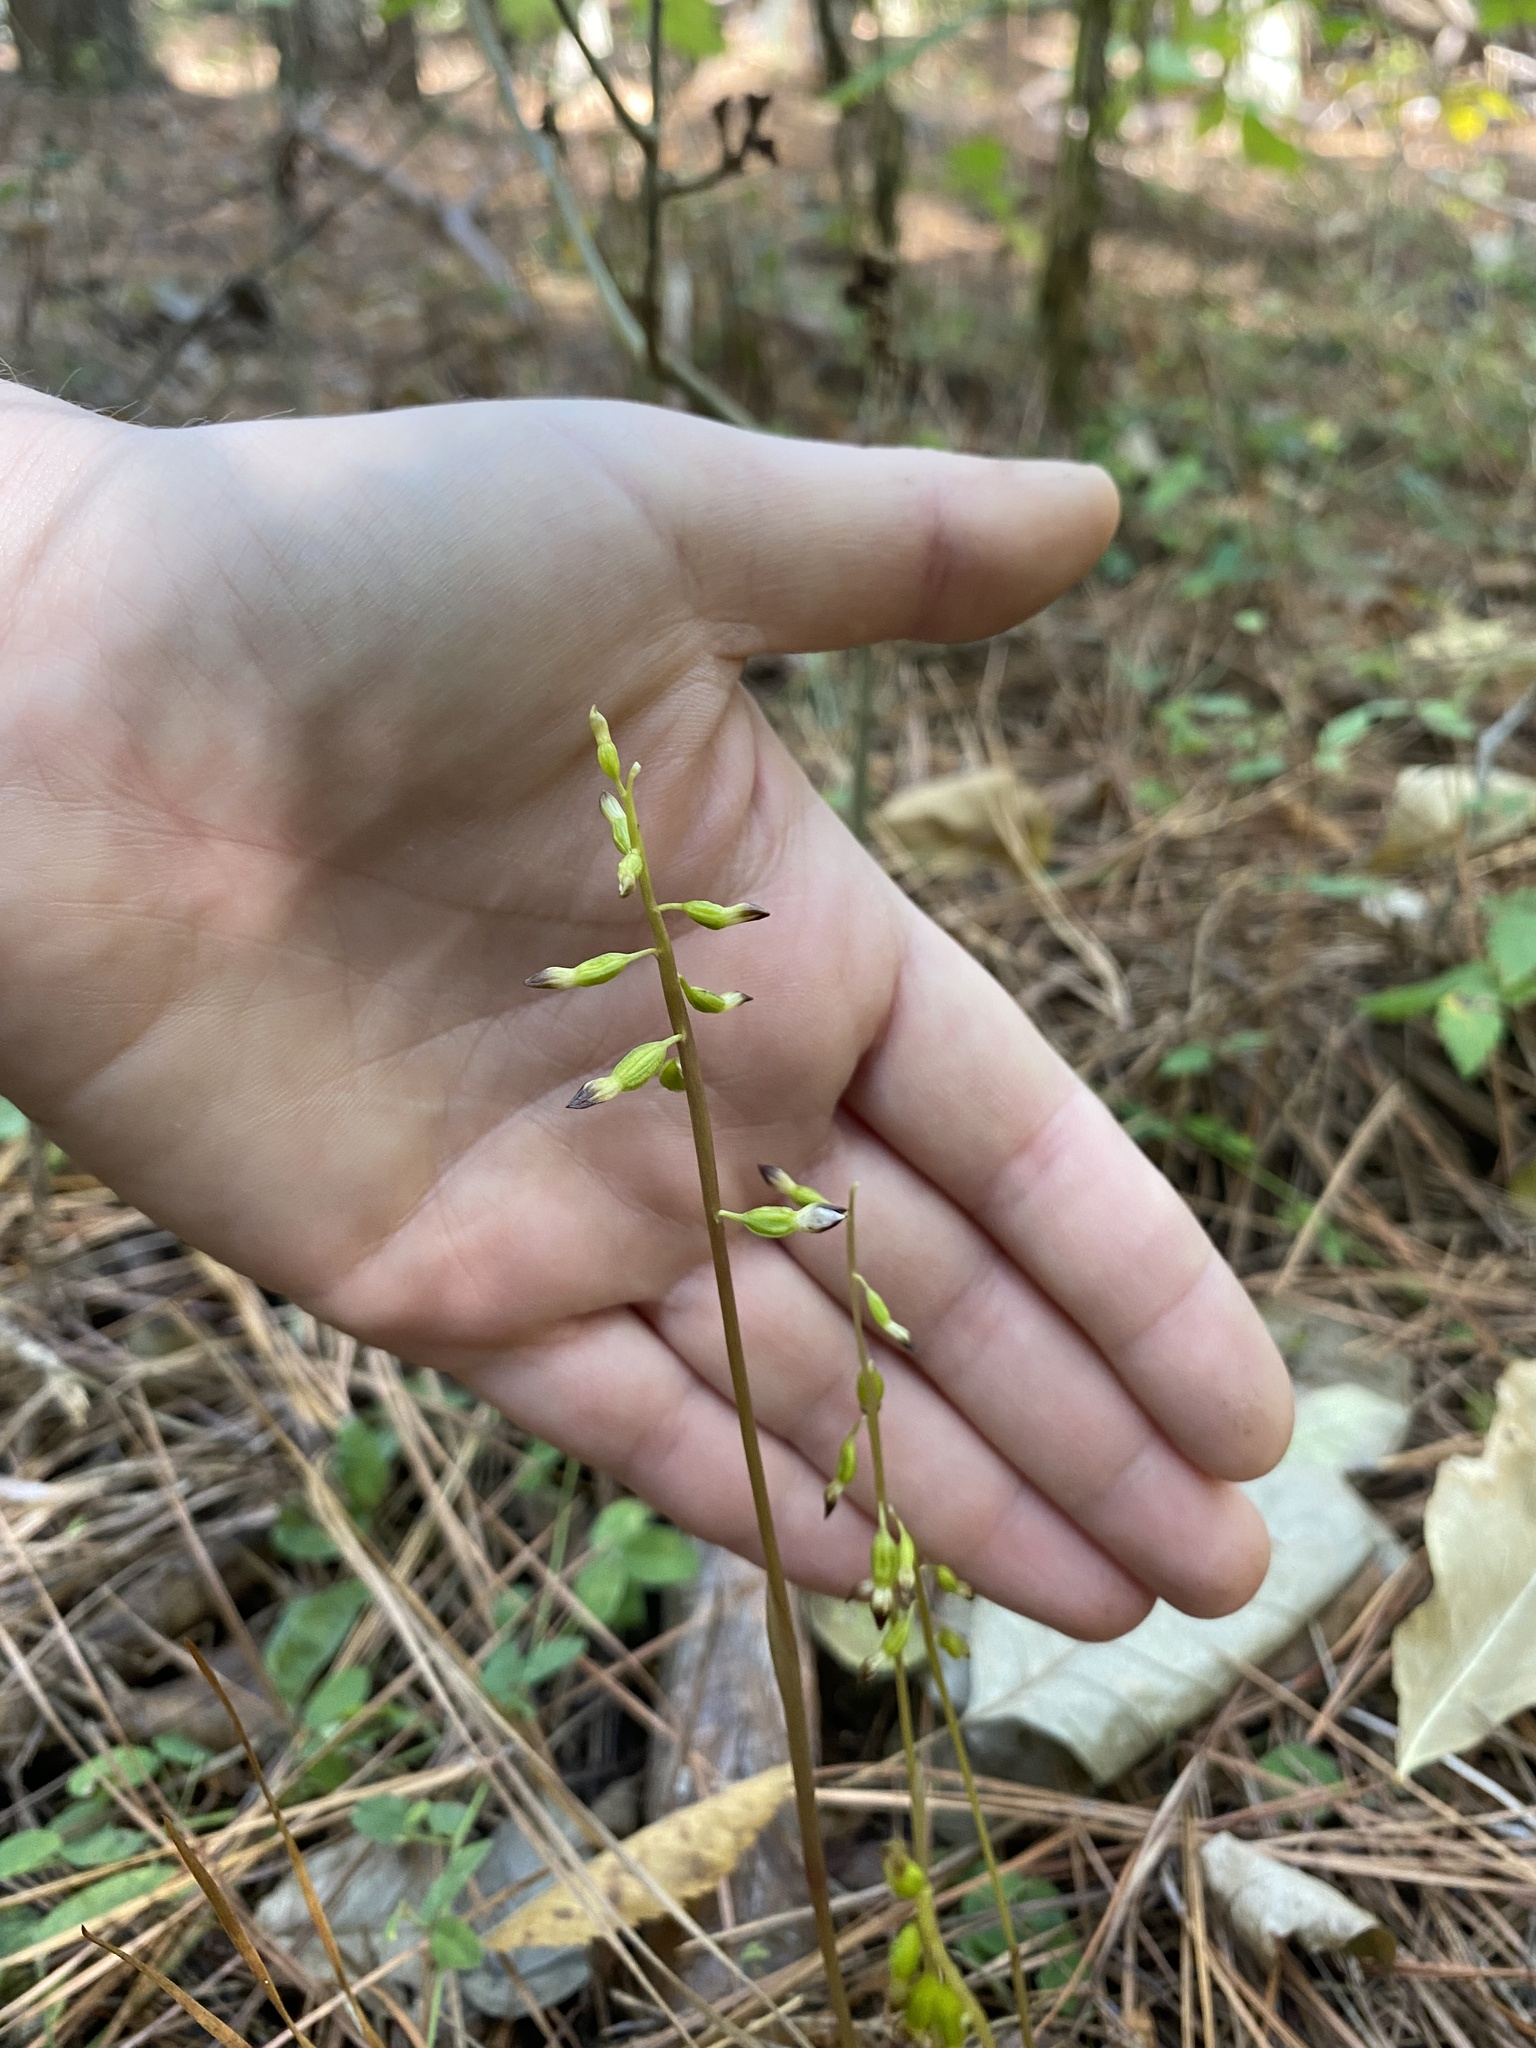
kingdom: Plantae
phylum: Tracheophyta
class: Liliopsida
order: Asparagales
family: Orchidaceae
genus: Corallorhiza
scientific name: Corallorhiza odontorhiza
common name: Autumn coralroot
